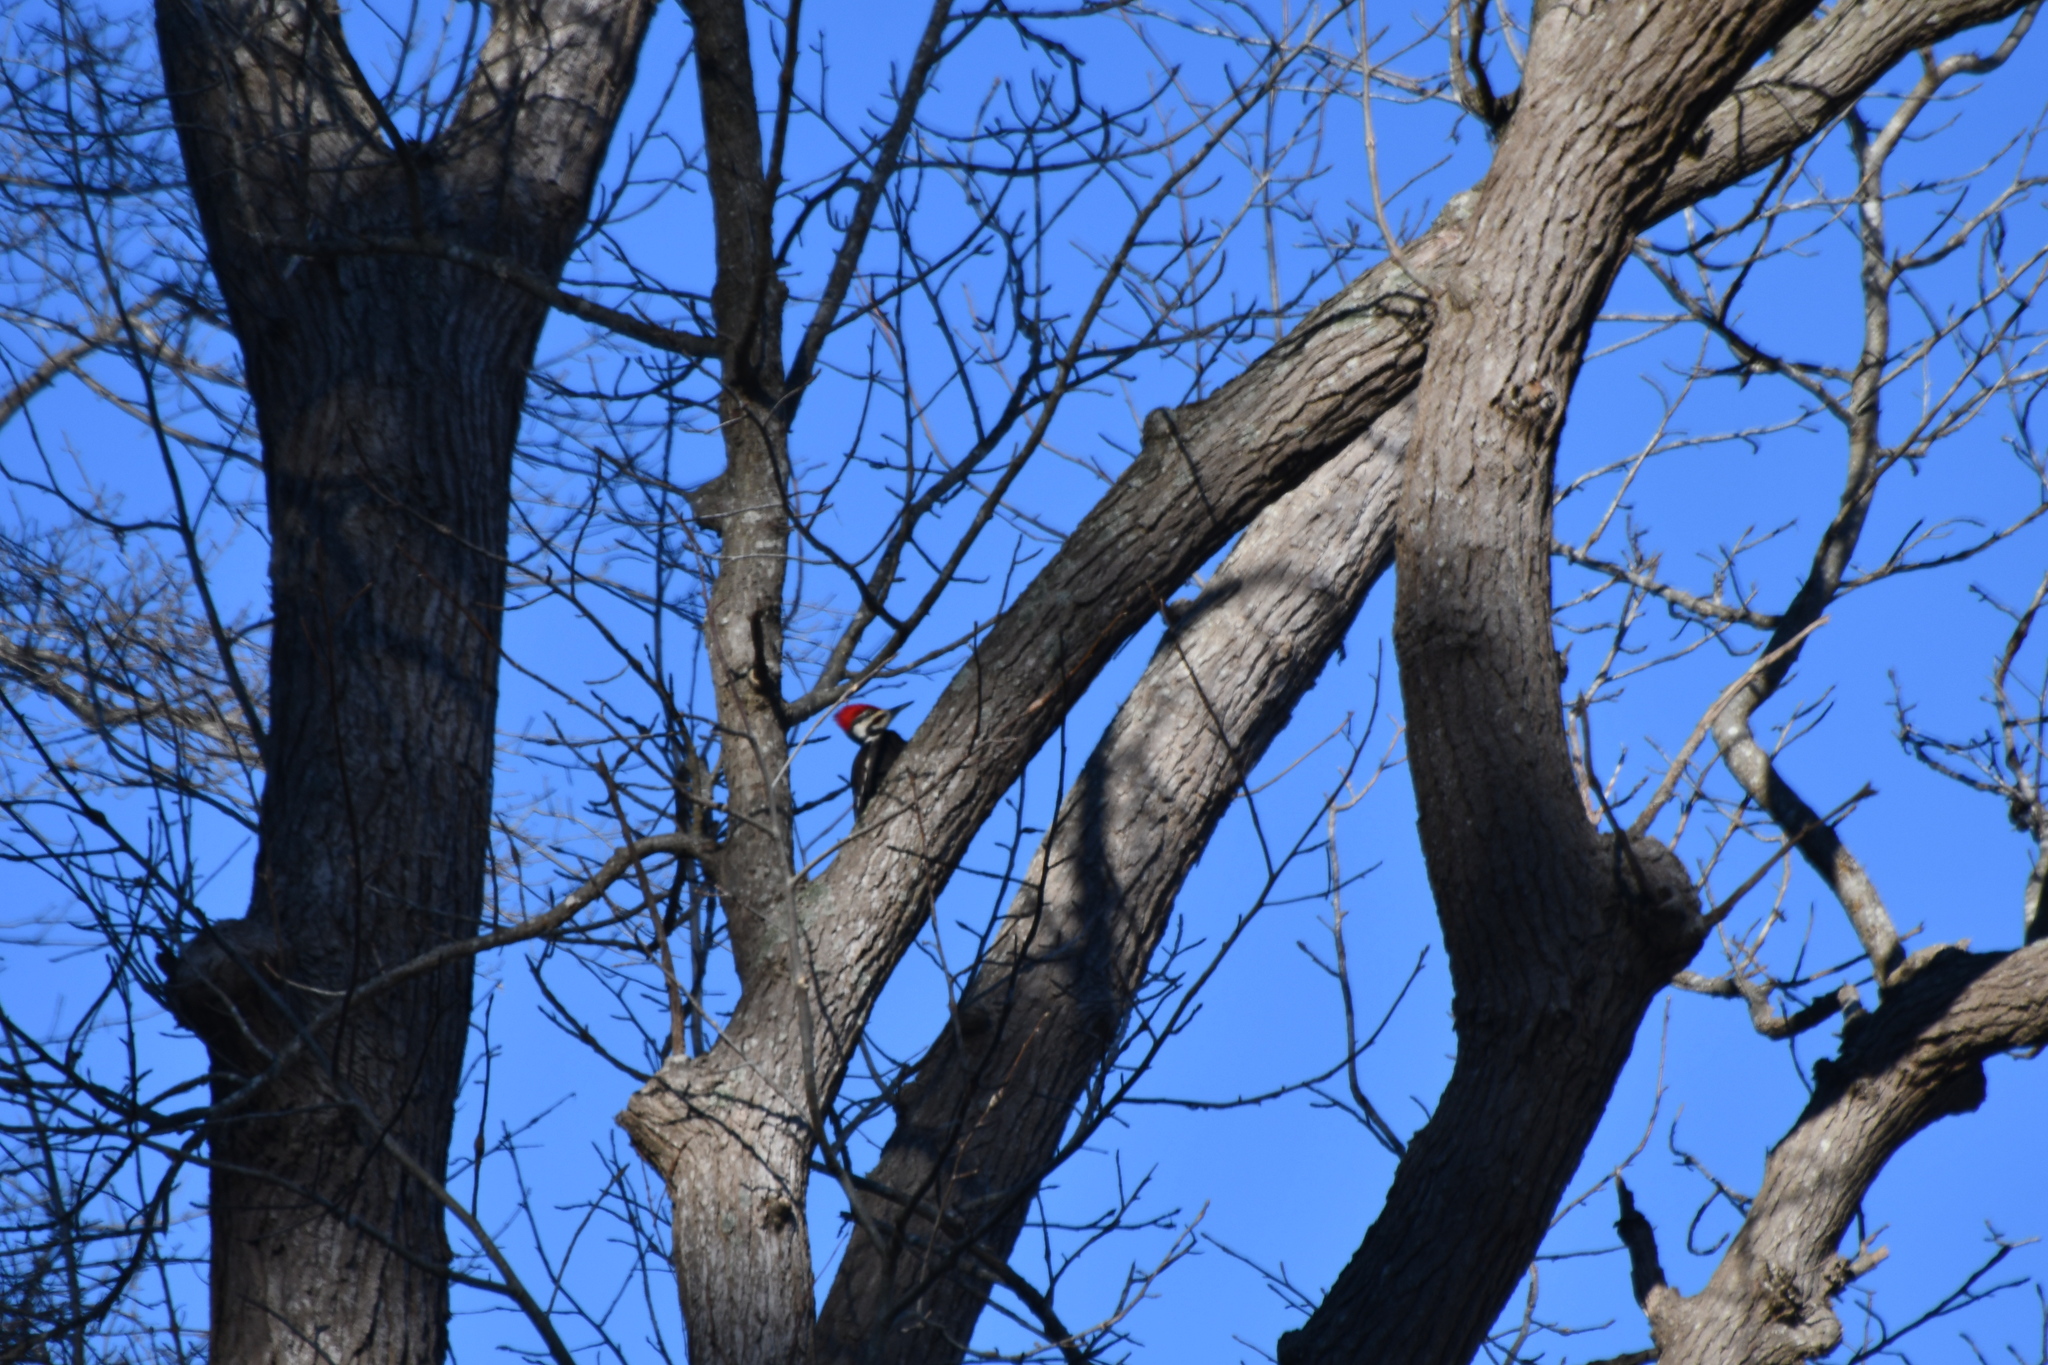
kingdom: Animalia
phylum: Chordata
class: Aves
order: Piciformes
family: Picidae
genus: Dryocopus
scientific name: Dryocopus pileatus
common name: Pileated woodpecker
